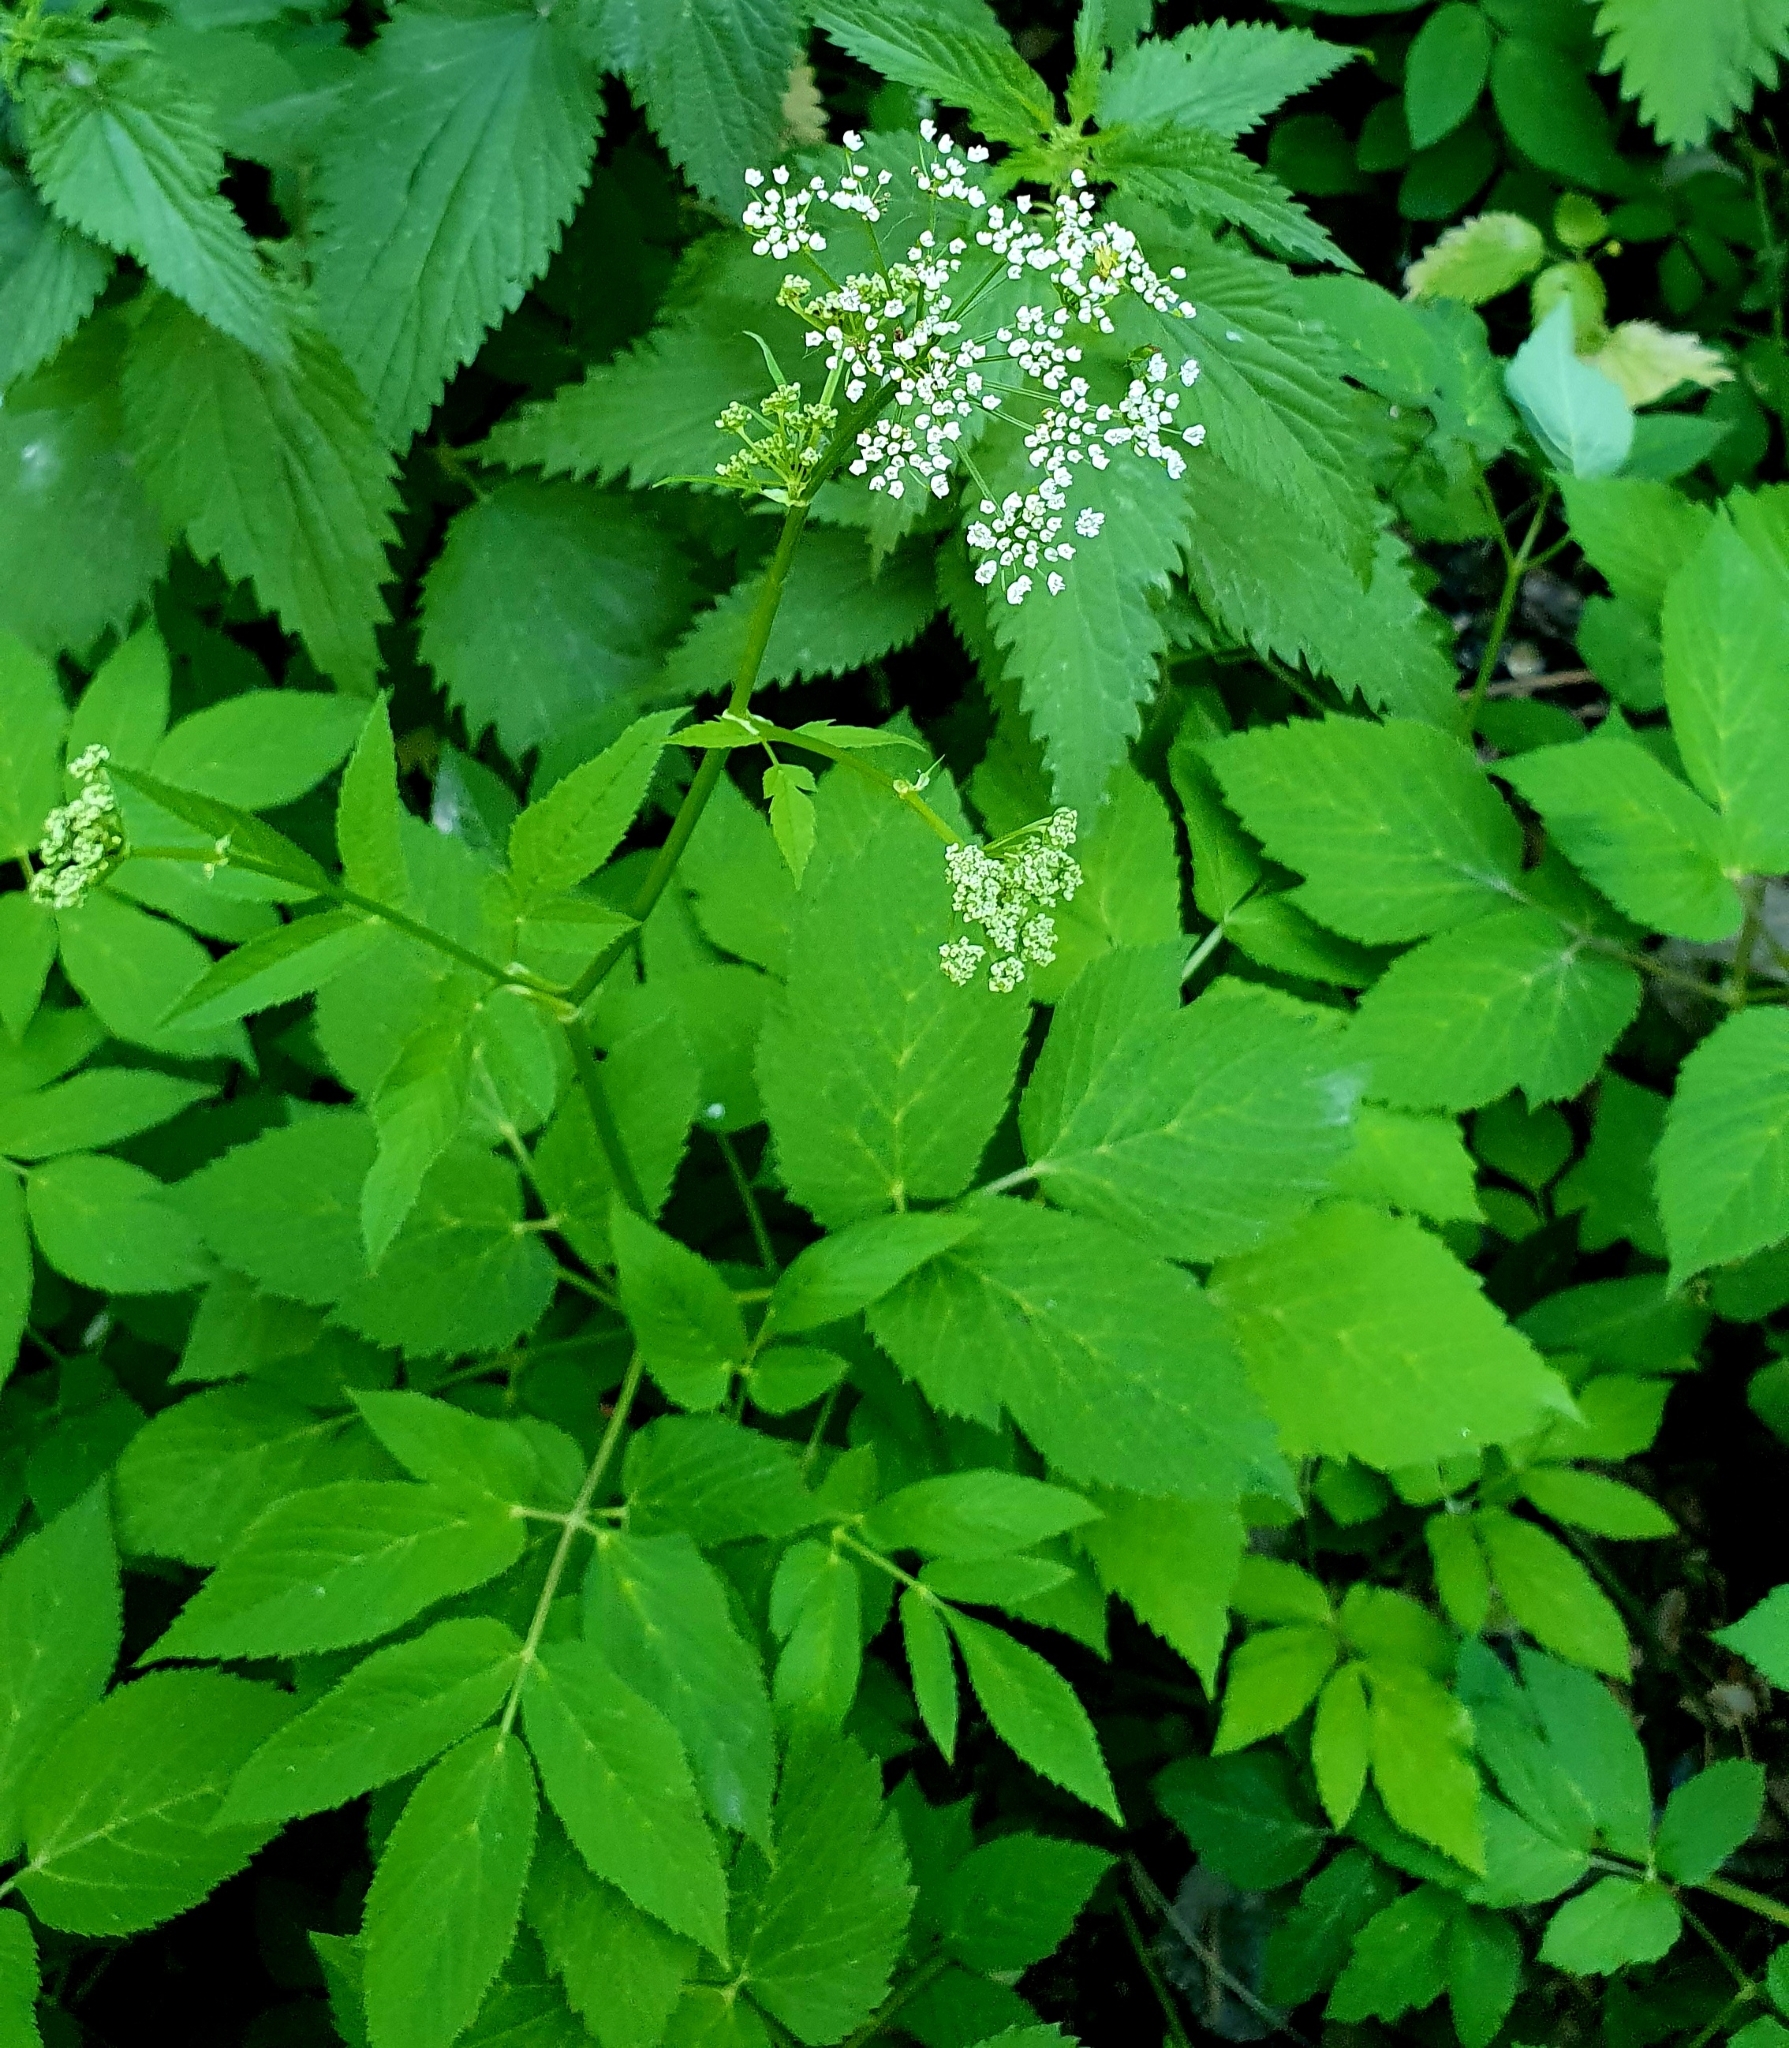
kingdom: Plantae
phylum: Tracheophyta
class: Magnoliopsida
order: Apiales
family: Apiaceae
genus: Aegopodium
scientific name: Aegopodium podagraria
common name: Ground-elder
